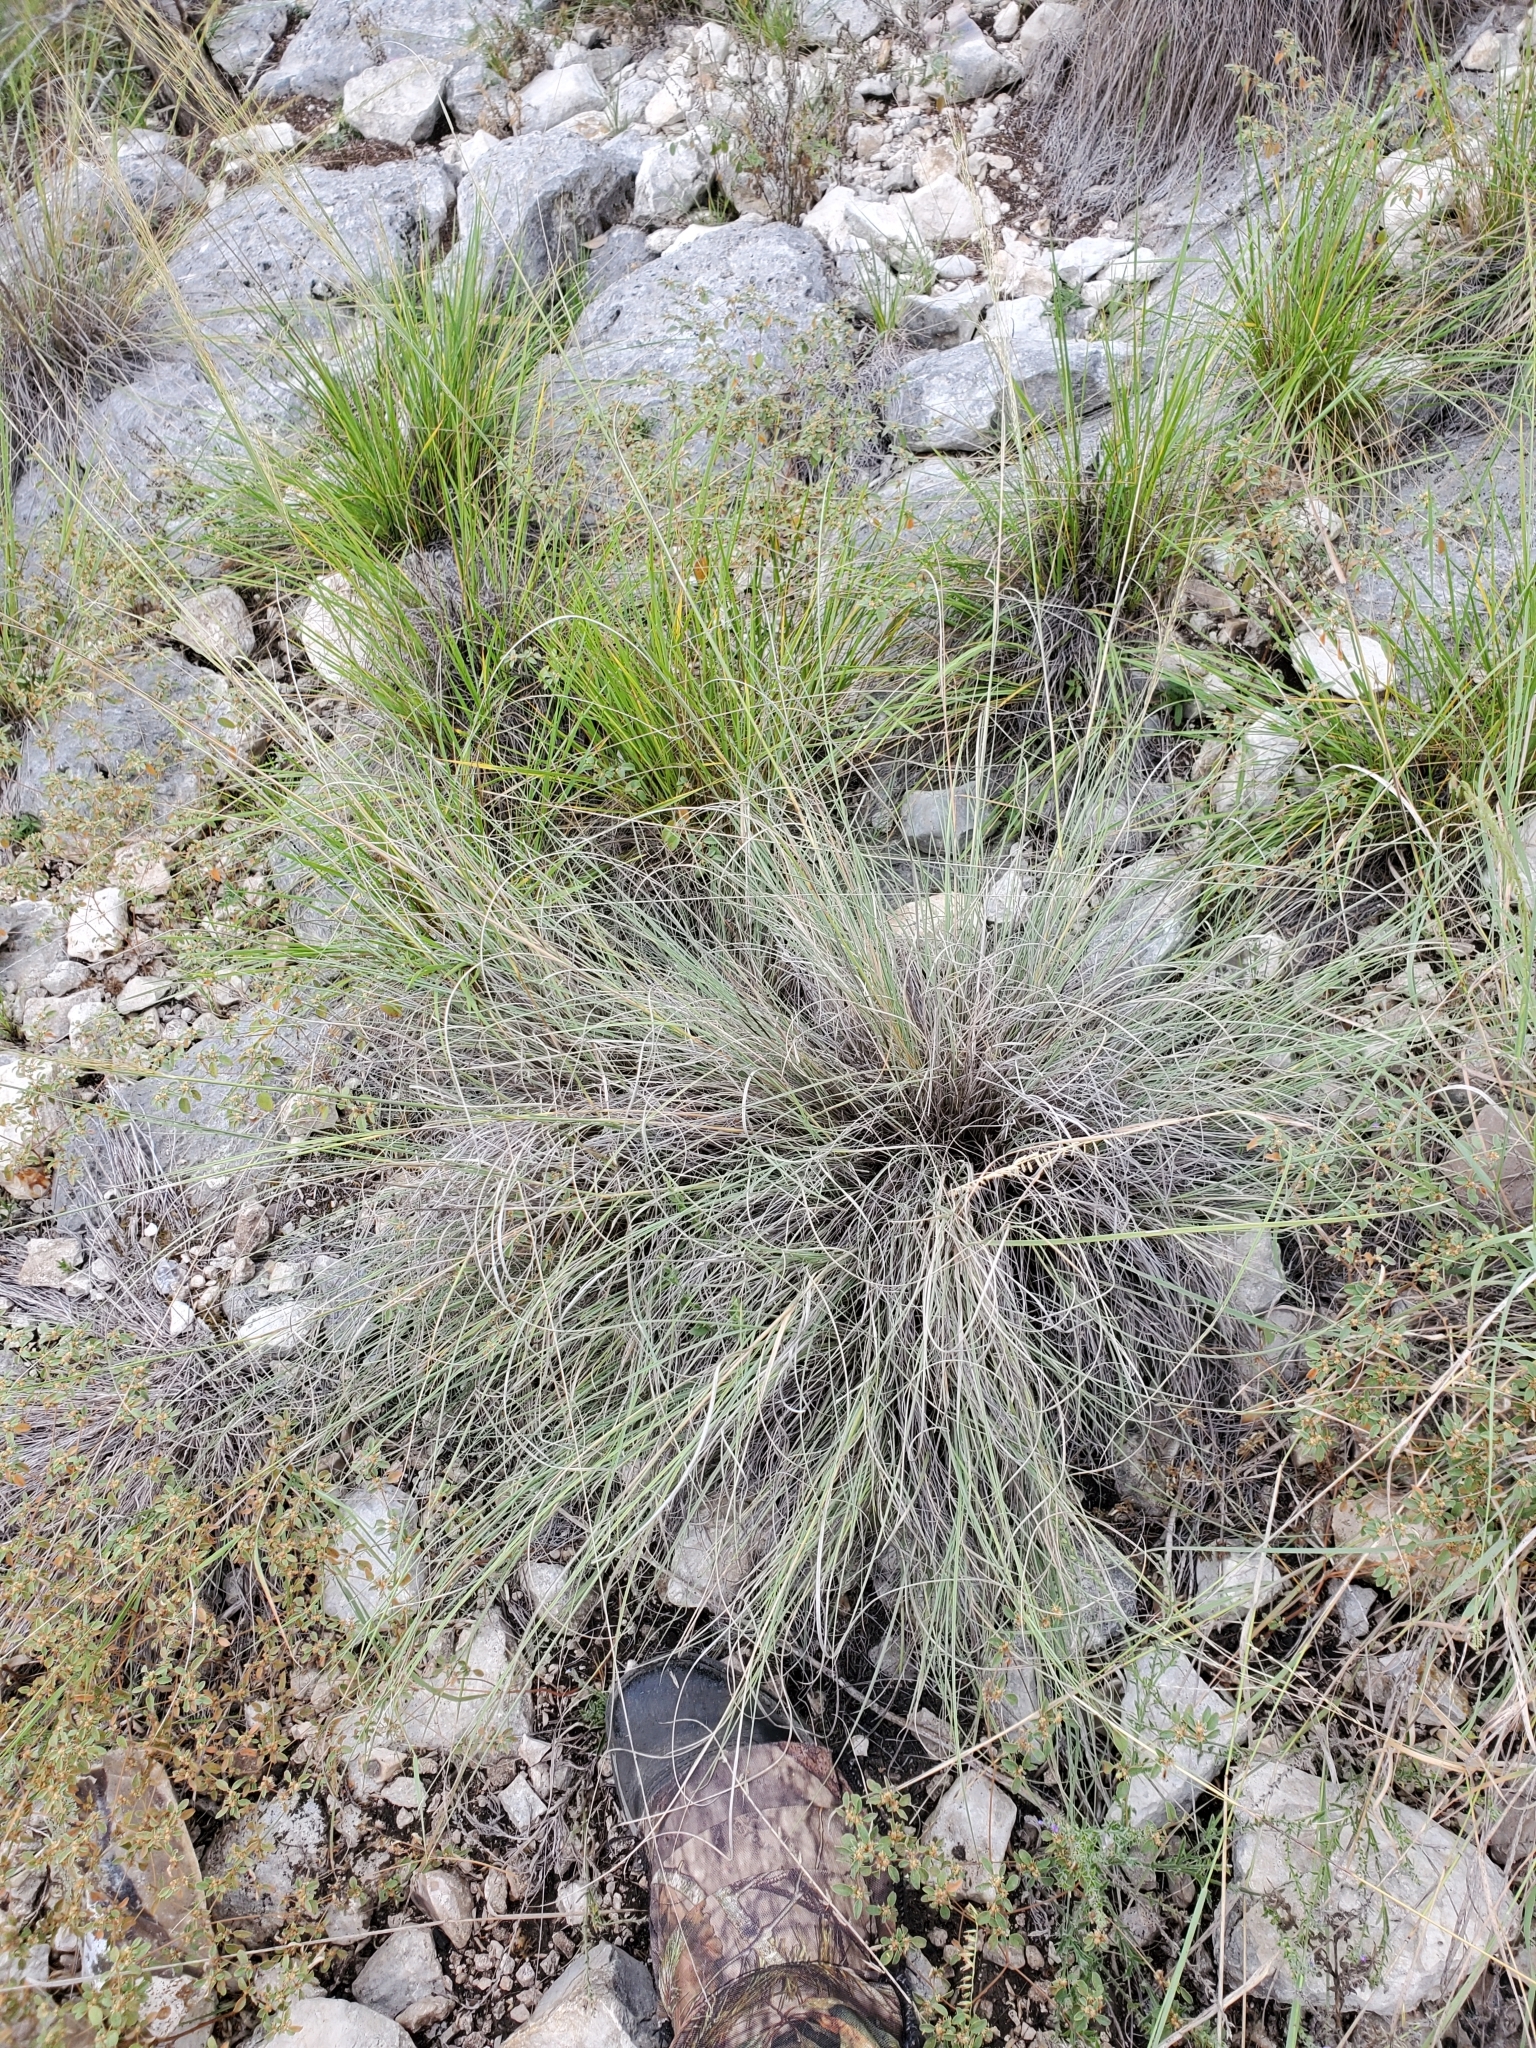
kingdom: Plantae
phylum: Tracheophyta
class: Liliopsida
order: Poales
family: Poaceae
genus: Muhlenbergia
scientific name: Muhlenbergia spiciformis
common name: Longawn muhly
